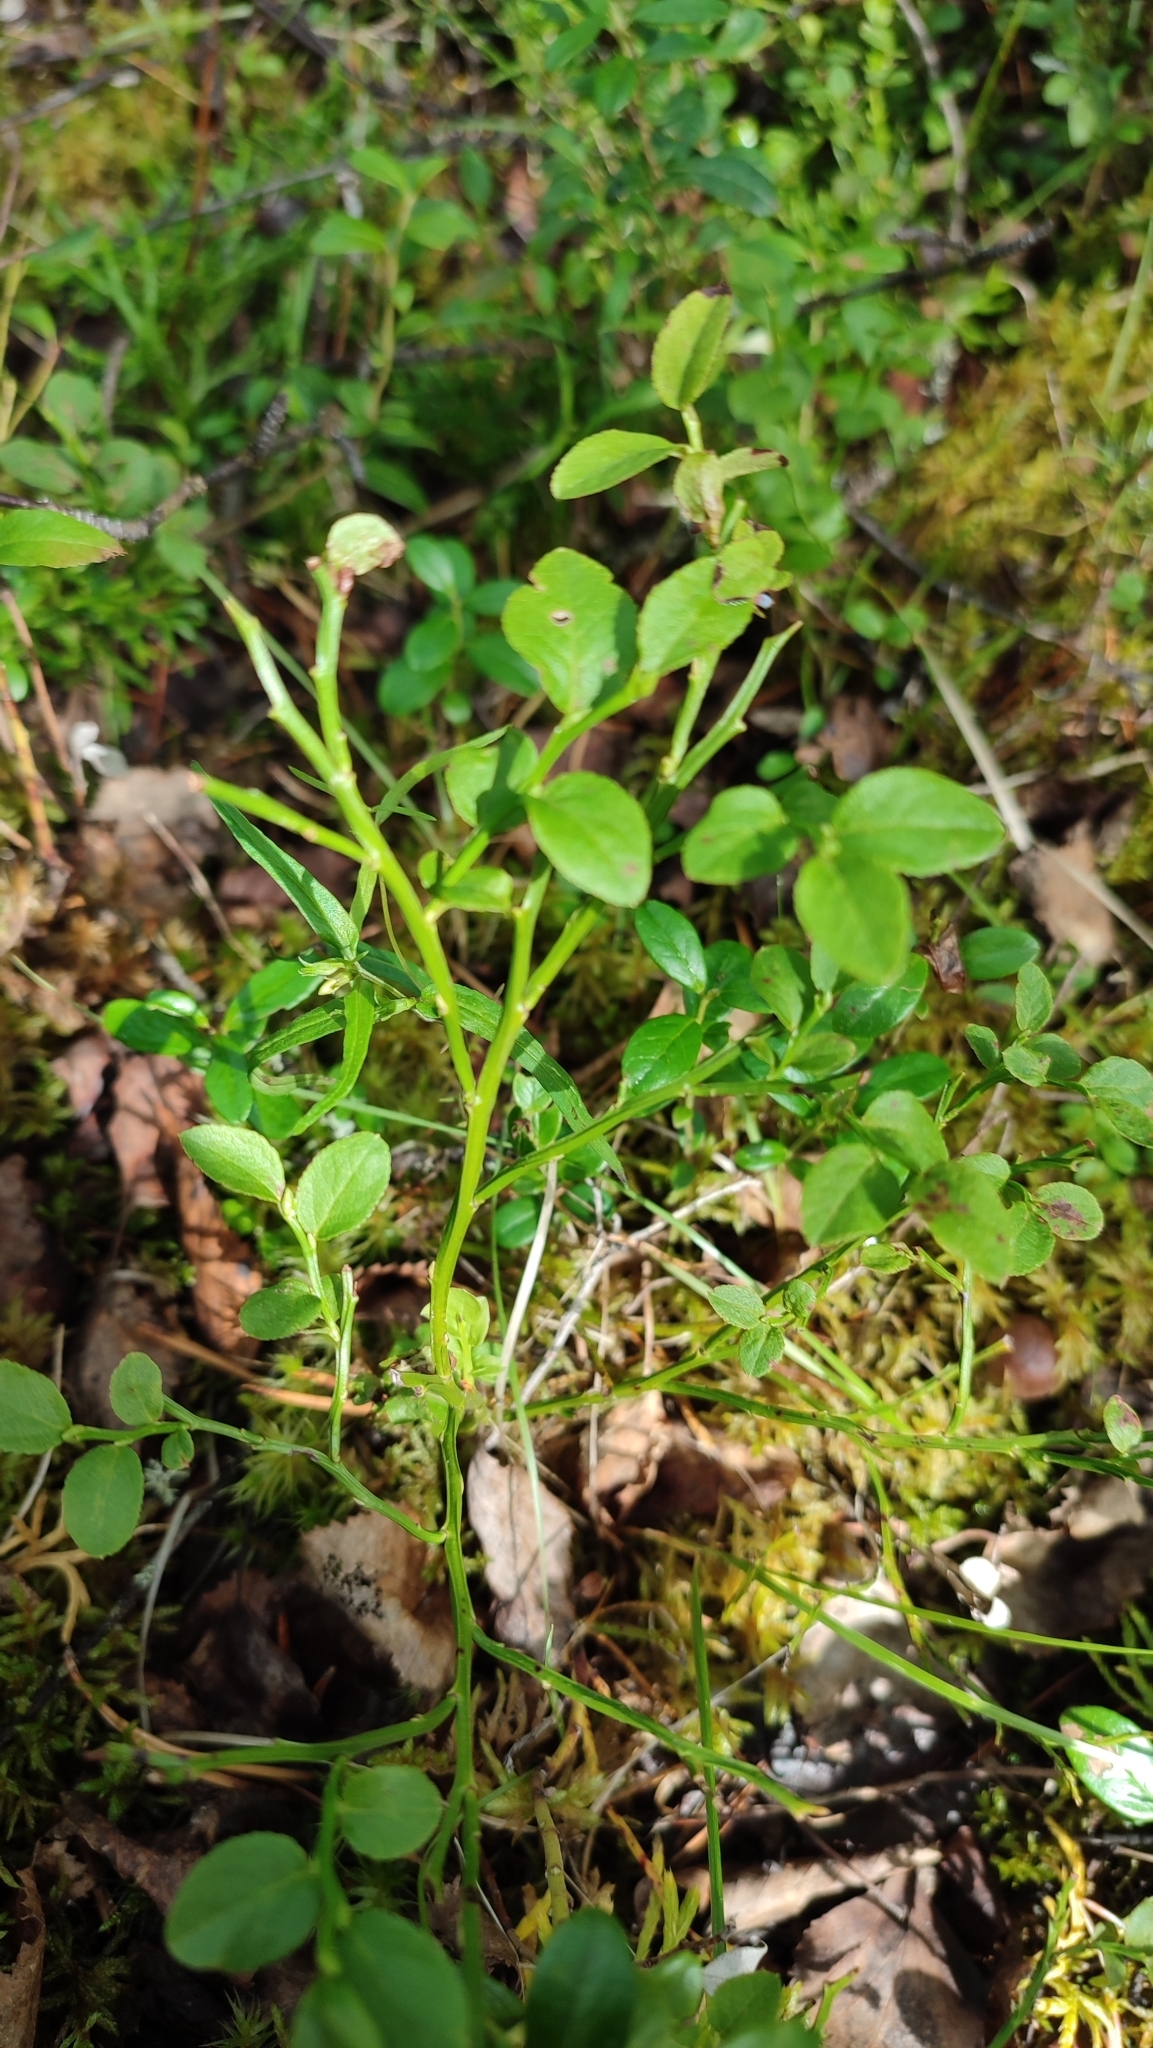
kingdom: Plantae
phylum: Tracheophyta
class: Magnoliopsida
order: Ericales
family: Ericaceae
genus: Vaccinium
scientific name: Vaccinium myrtillus
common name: Bilberry
